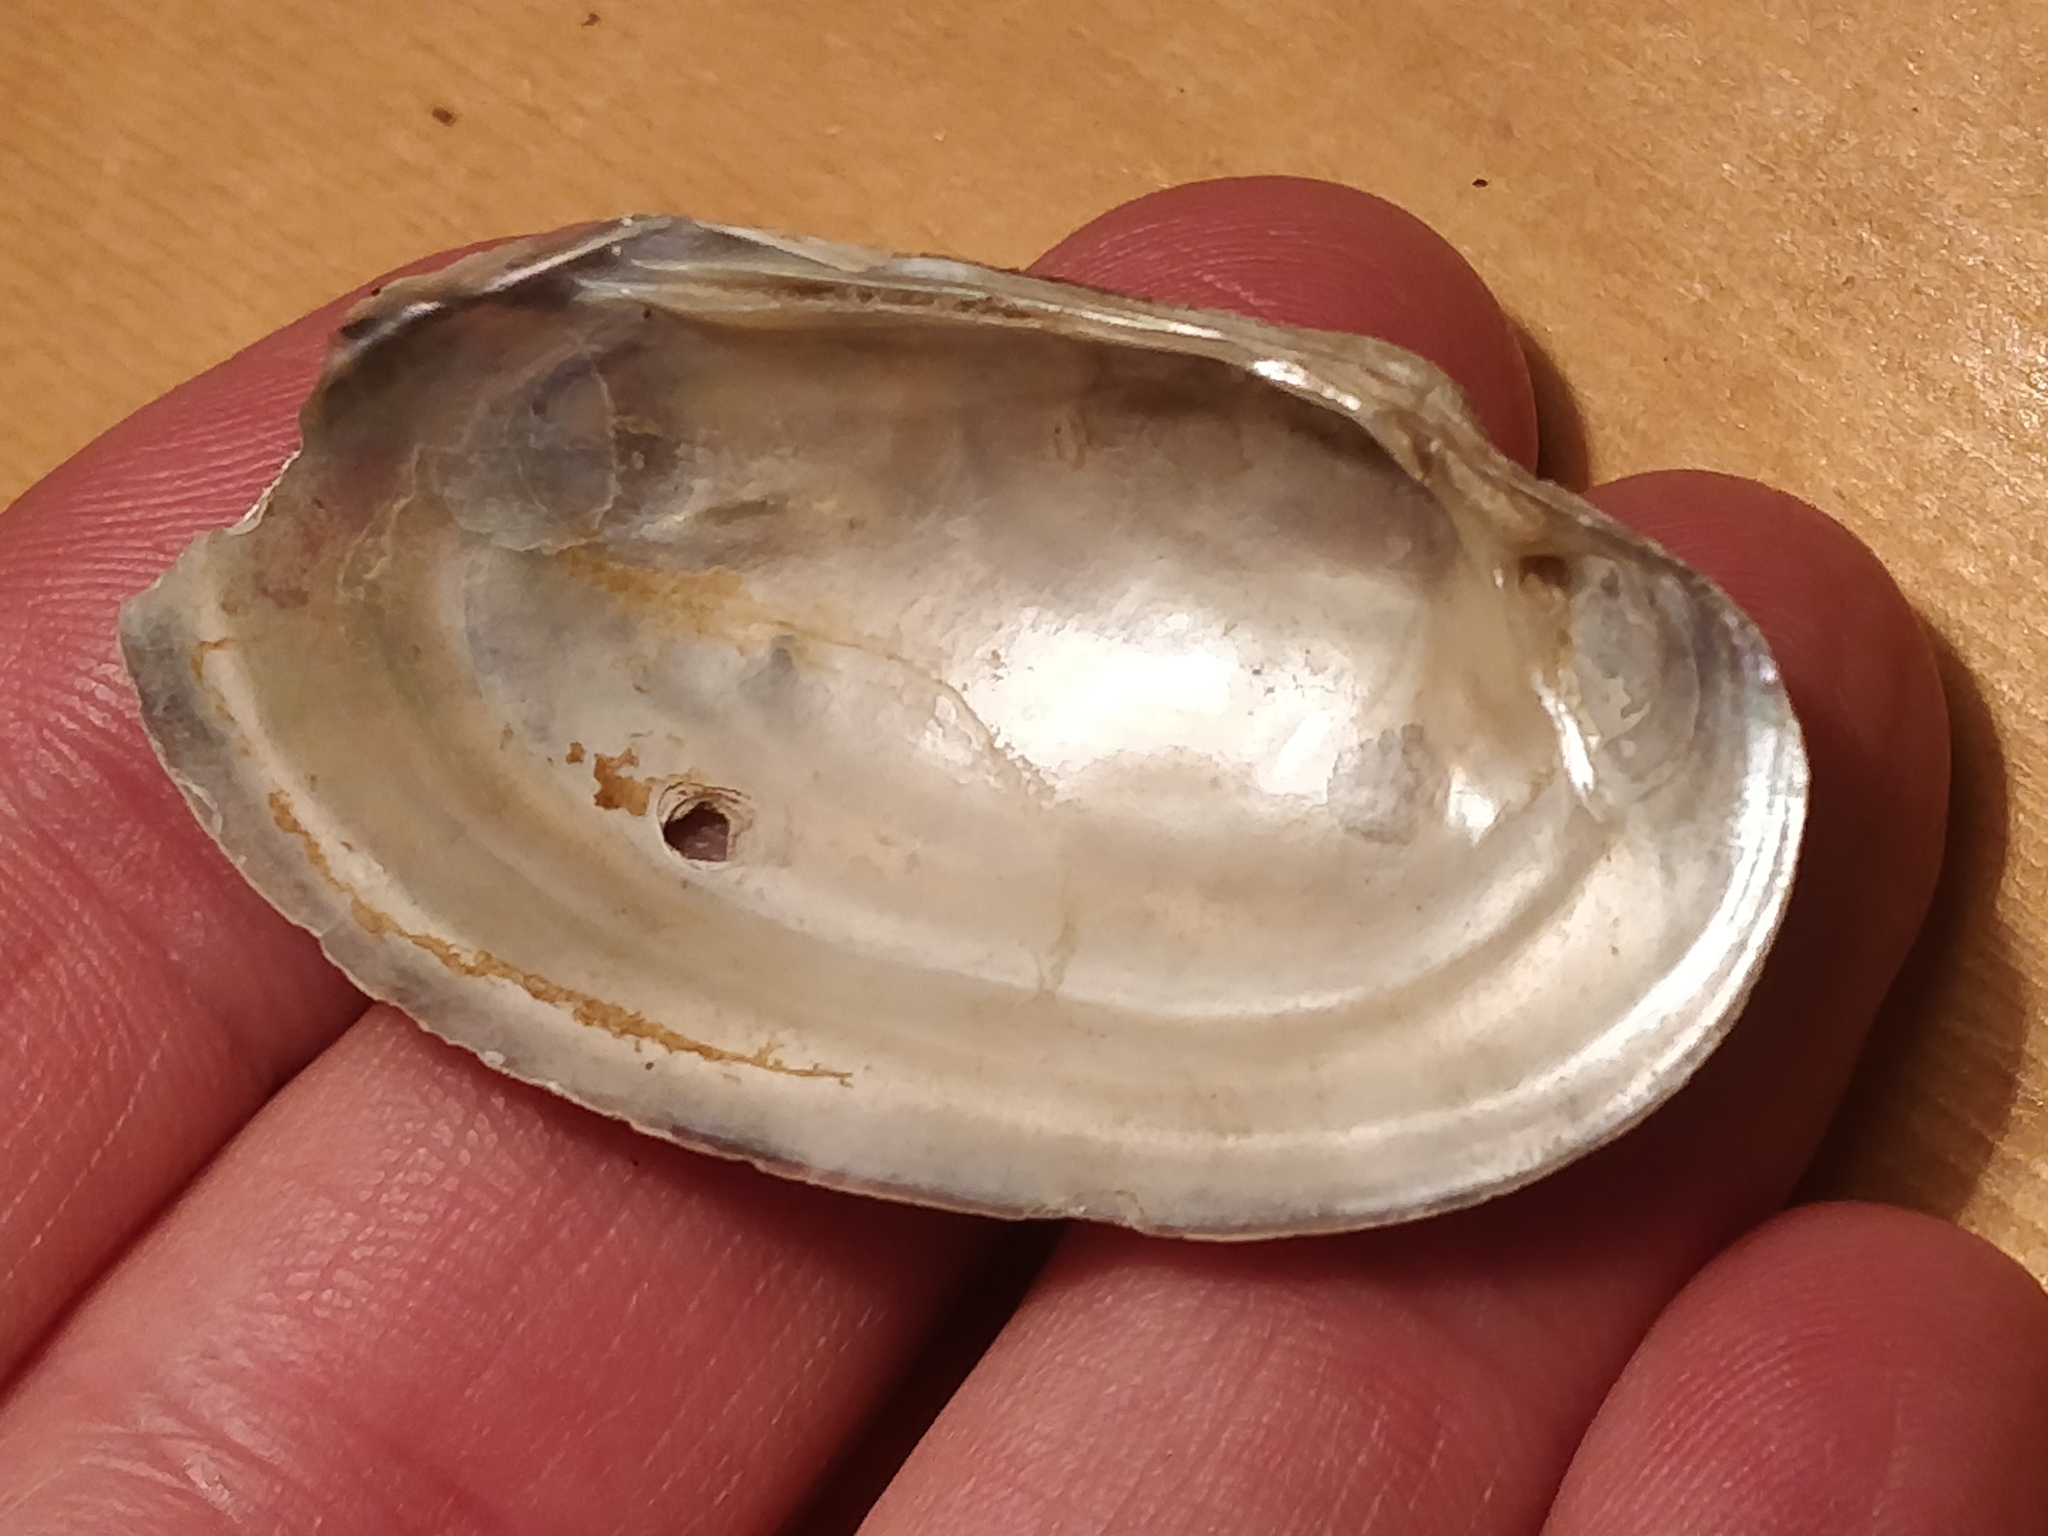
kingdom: Animalia
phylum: Mollusca
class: Bivalvia
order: Unionida
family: Unionidae
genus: Lampsilis
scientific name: Lampsilis siliquoidea
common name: Fatmucket
